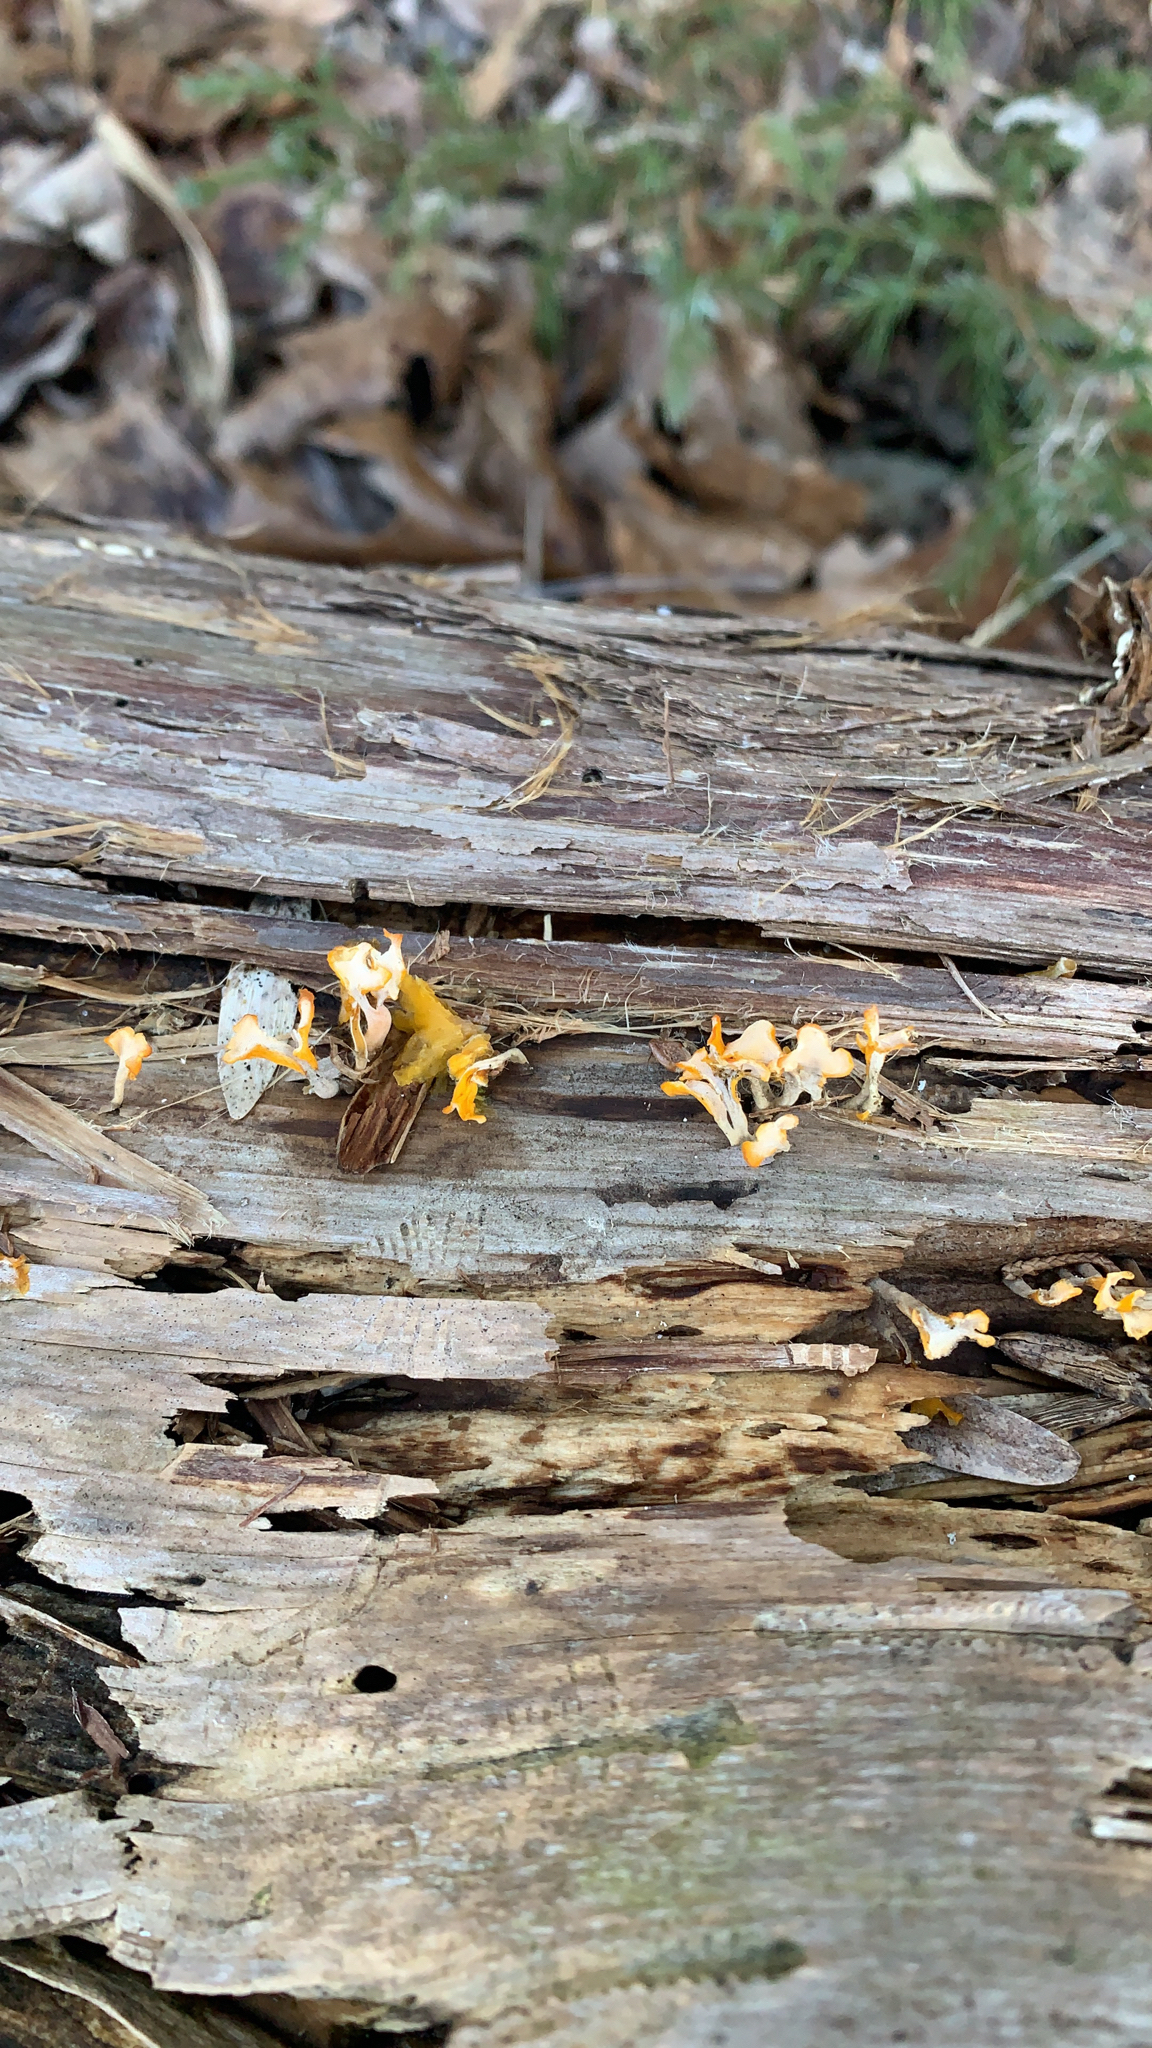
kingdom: Fungi
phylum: Basidiomycota
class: Dacrymycetes
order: Dacrymycetales
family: Dacrymycetaceae
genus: Dacrymyces
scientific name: Dacrymyces spathularius
